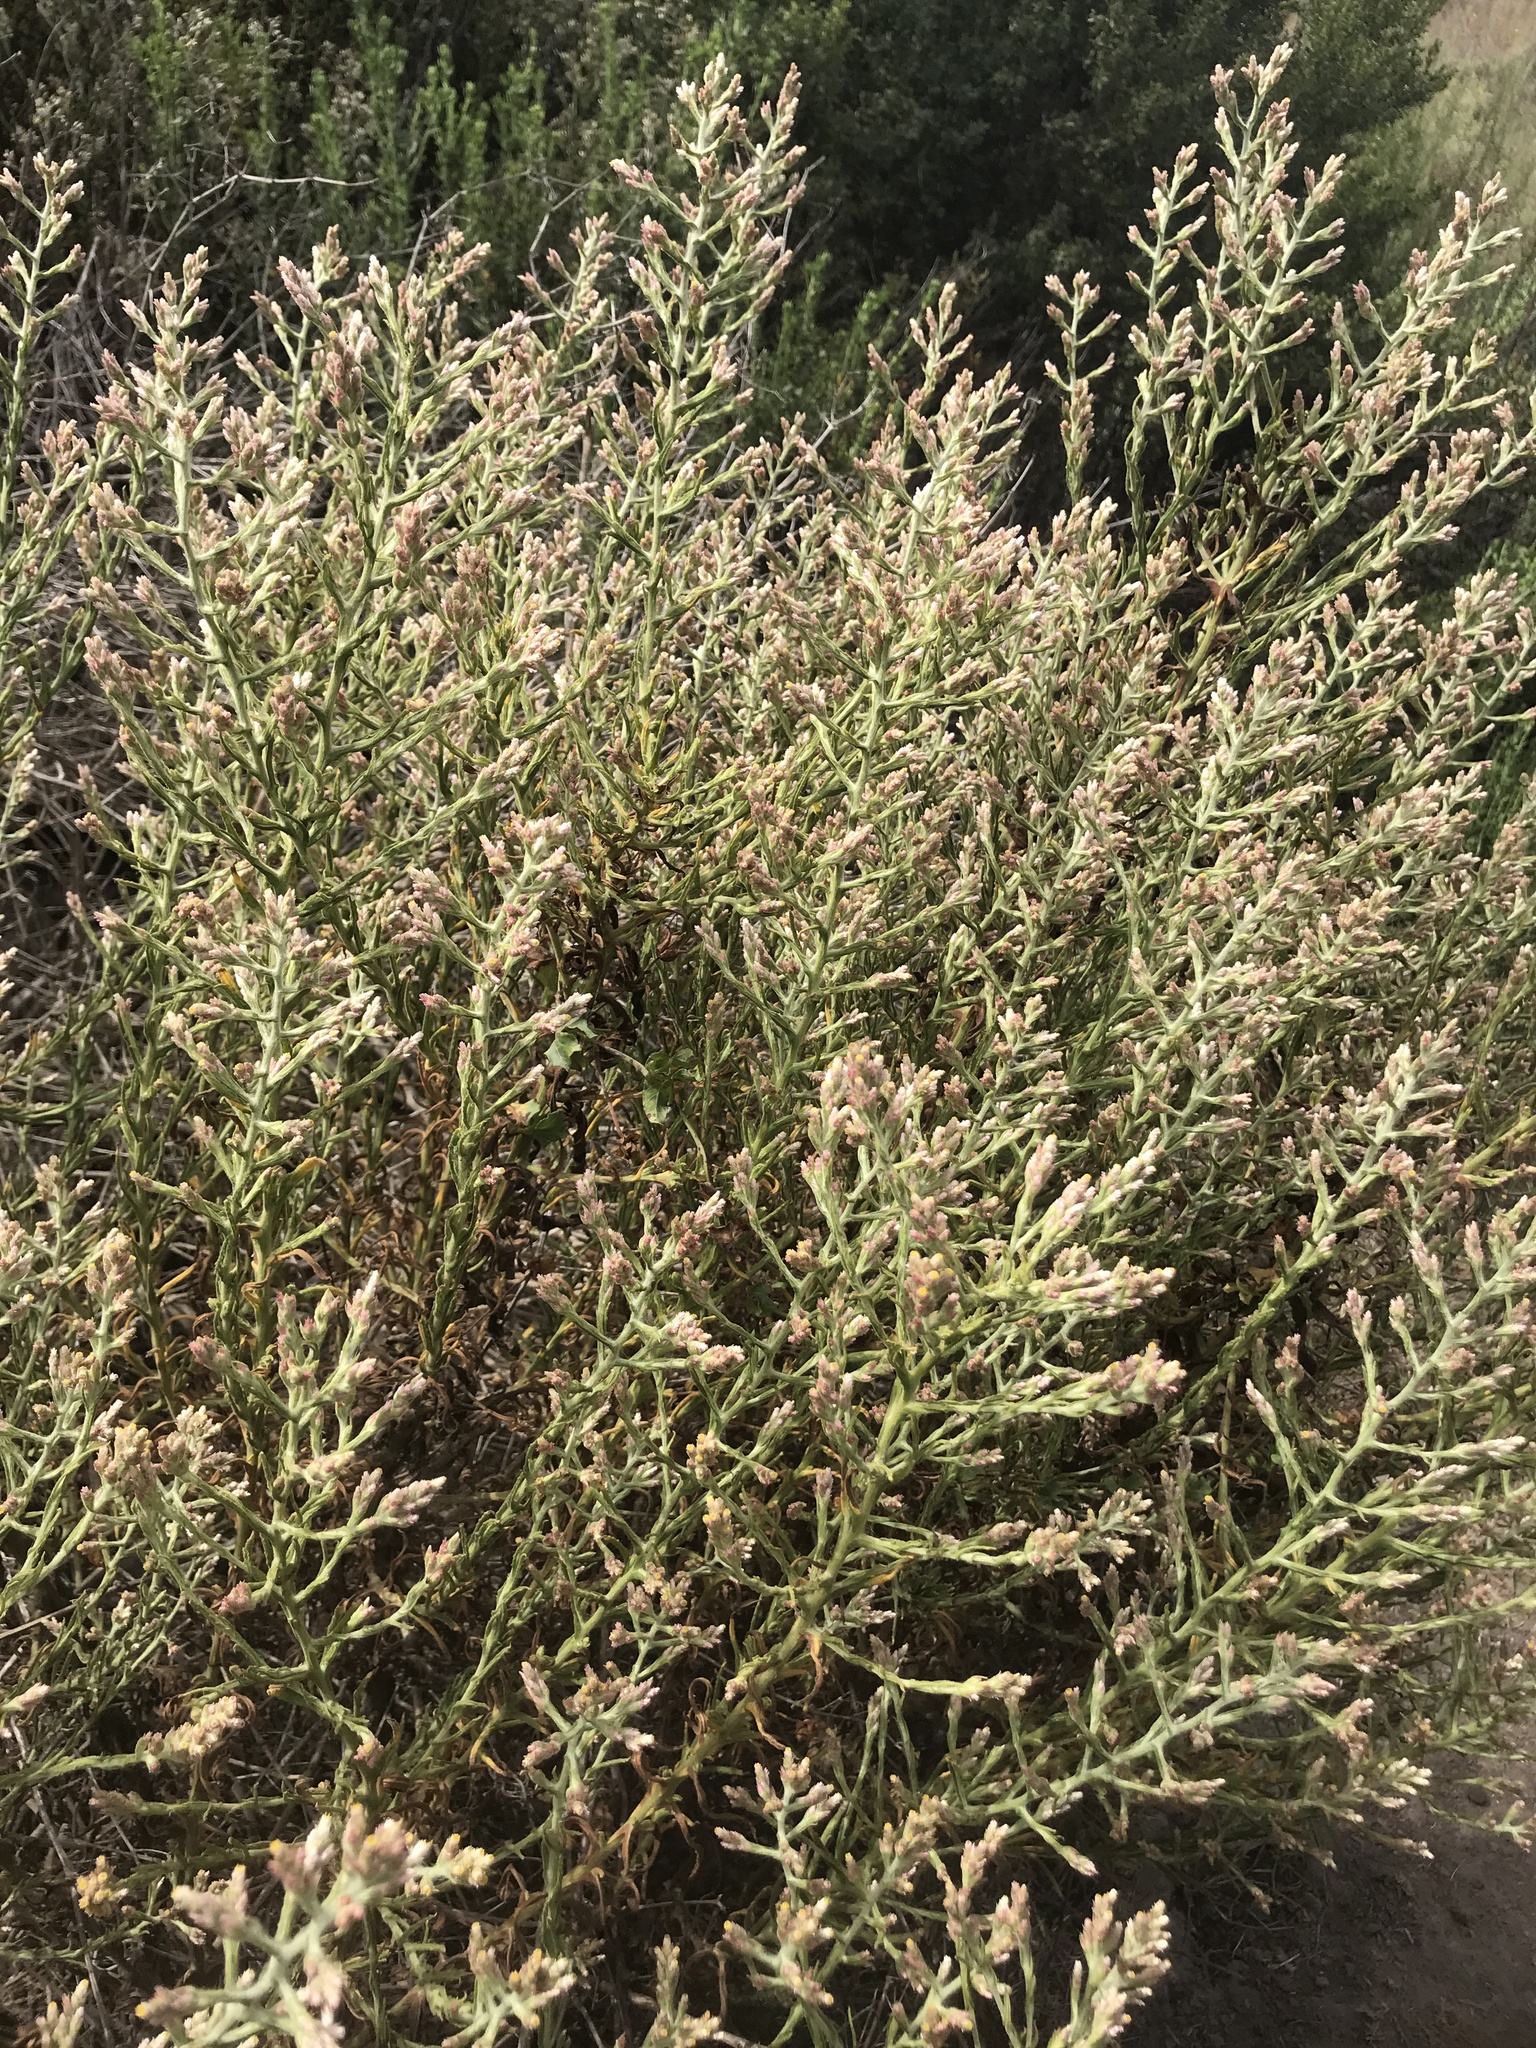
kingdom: Plantae
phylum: Tracheophyta
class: Magnoliopsida
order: Asterales
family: Asteraceae
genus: Pseudognaphalium
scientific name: Pseudognaphalium ramosissimum
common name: Pink rabbit-tobacco
